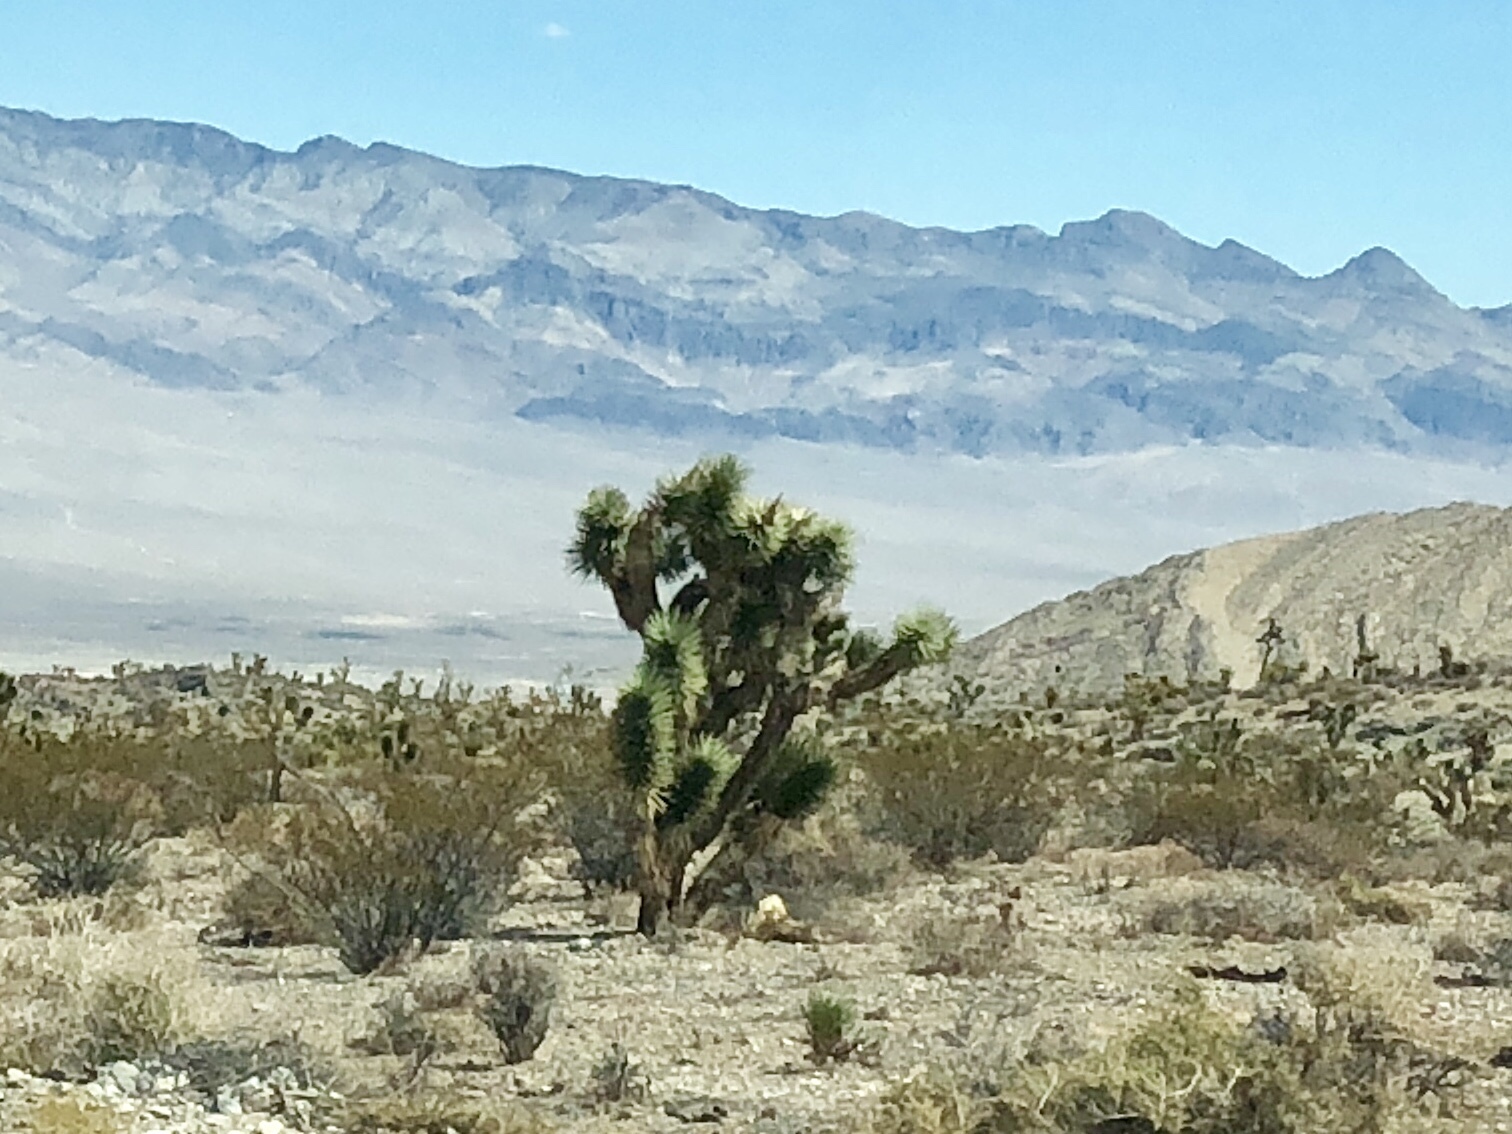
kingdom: Plantae
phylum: Tracheophyta
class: Liliopsida
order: Asparagales
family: Asparagaceae
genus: Yucca
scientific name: Yucca brevifolia
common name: Joshua tree
